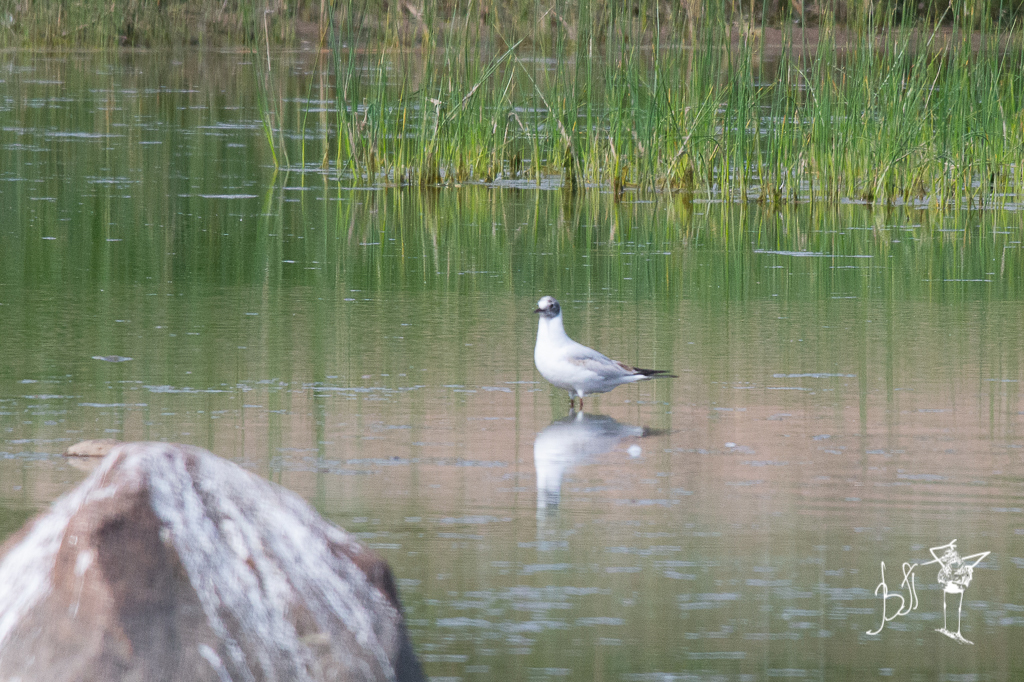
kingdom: Animalia
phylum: Chordata
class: Aves
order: Charadriiformes
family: Laridae
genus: Chroicocephalus
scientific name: Chroicocephalus ridibundus
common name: Black-headed gull
